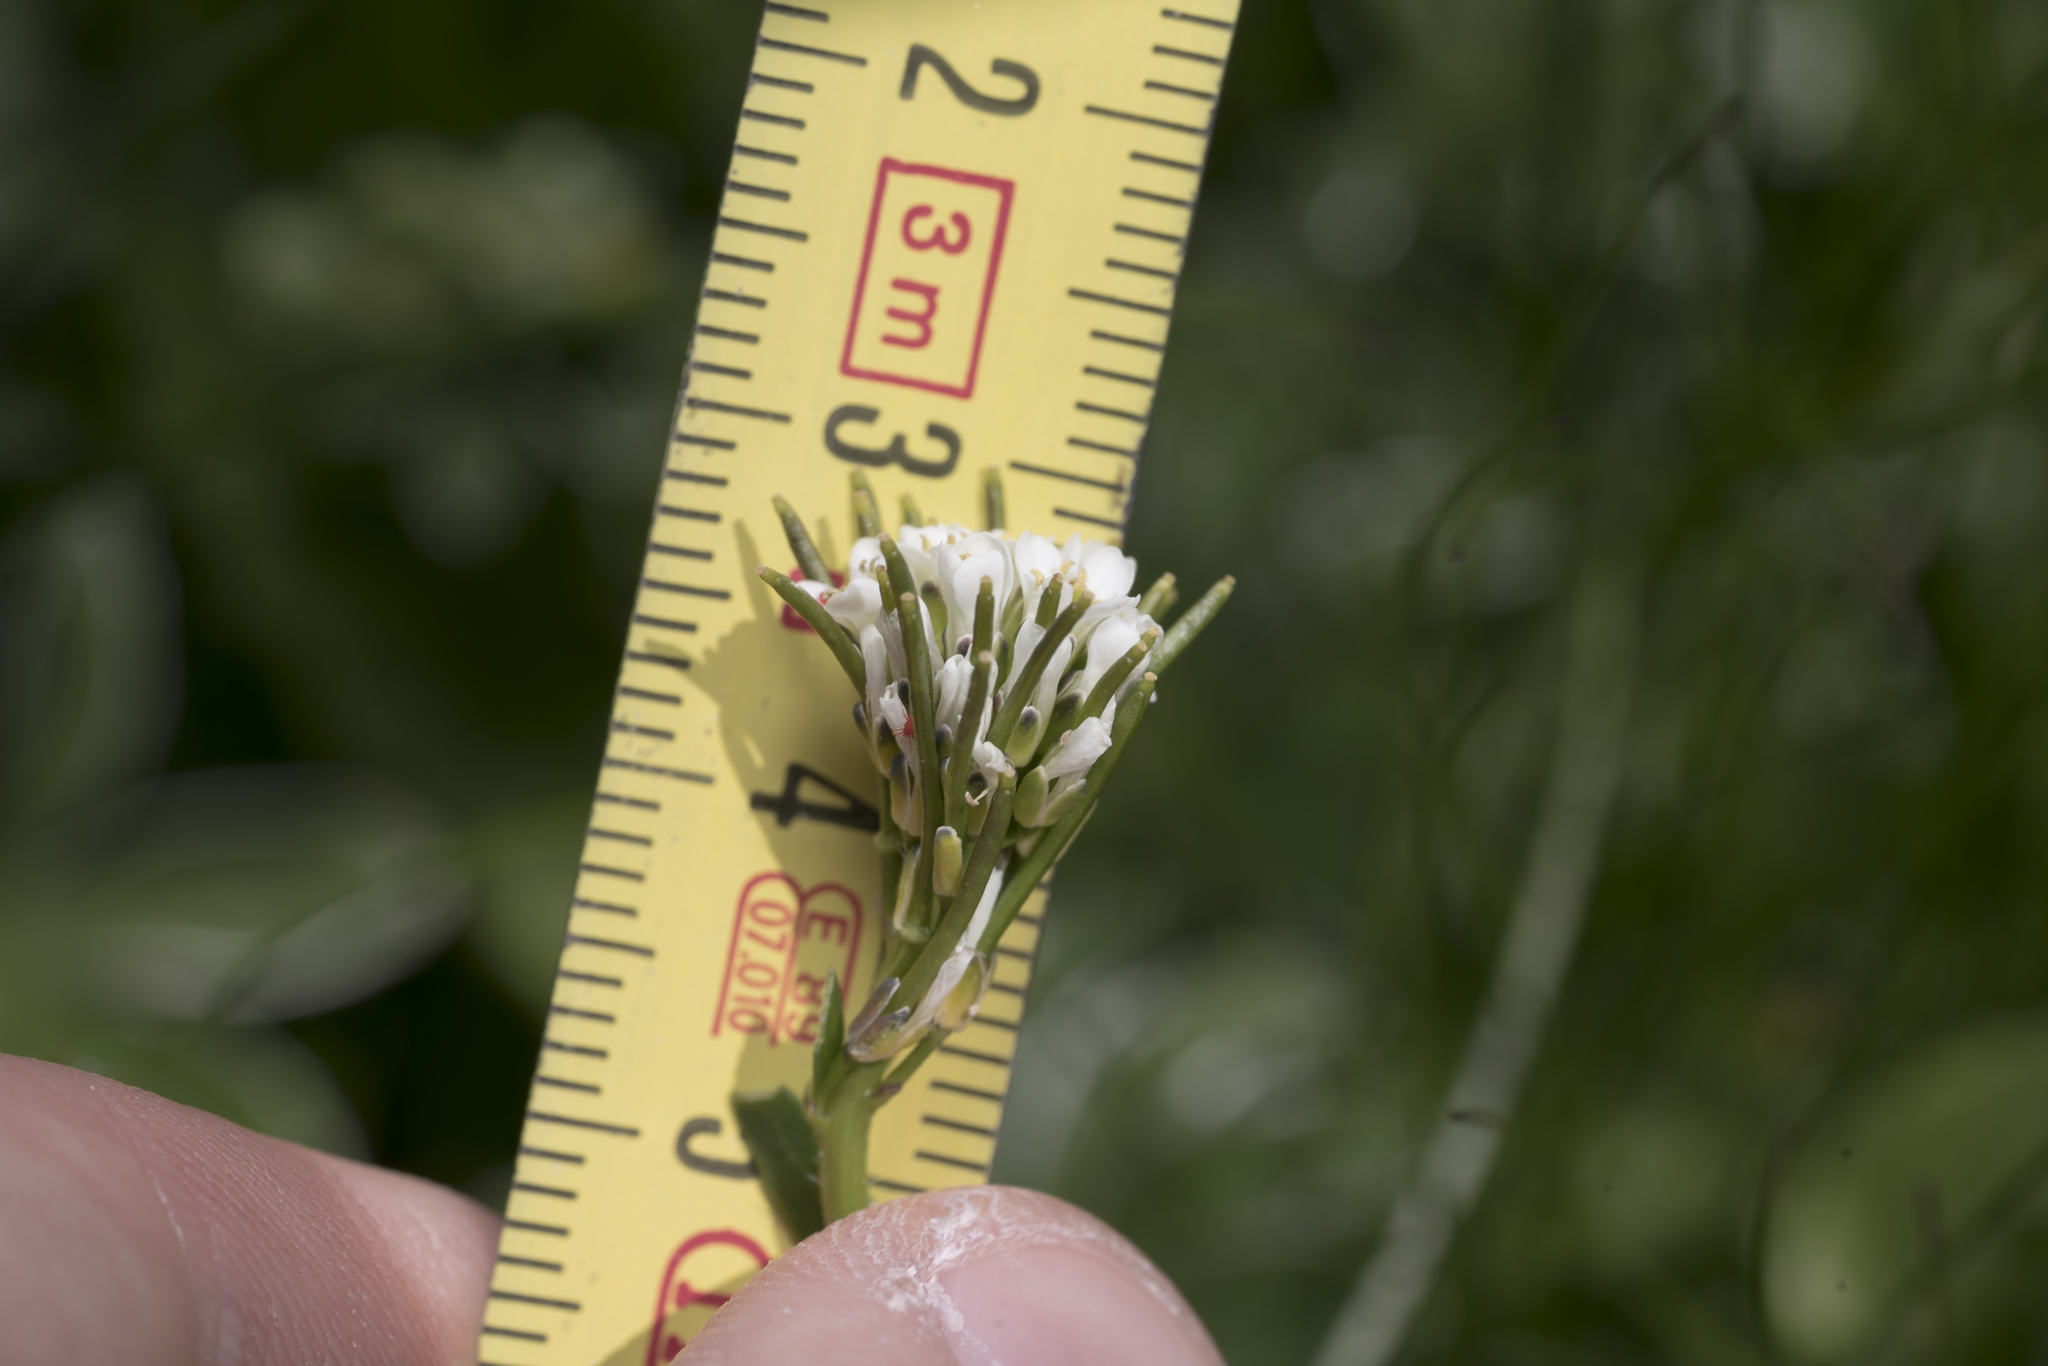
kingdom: Plantae
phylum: Tracheophyta
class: Magnoliopsida
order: Brassicales
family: Brassicaceae
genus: Arabis
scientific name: Arabis hirsuta
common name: Hairy rock-cress
